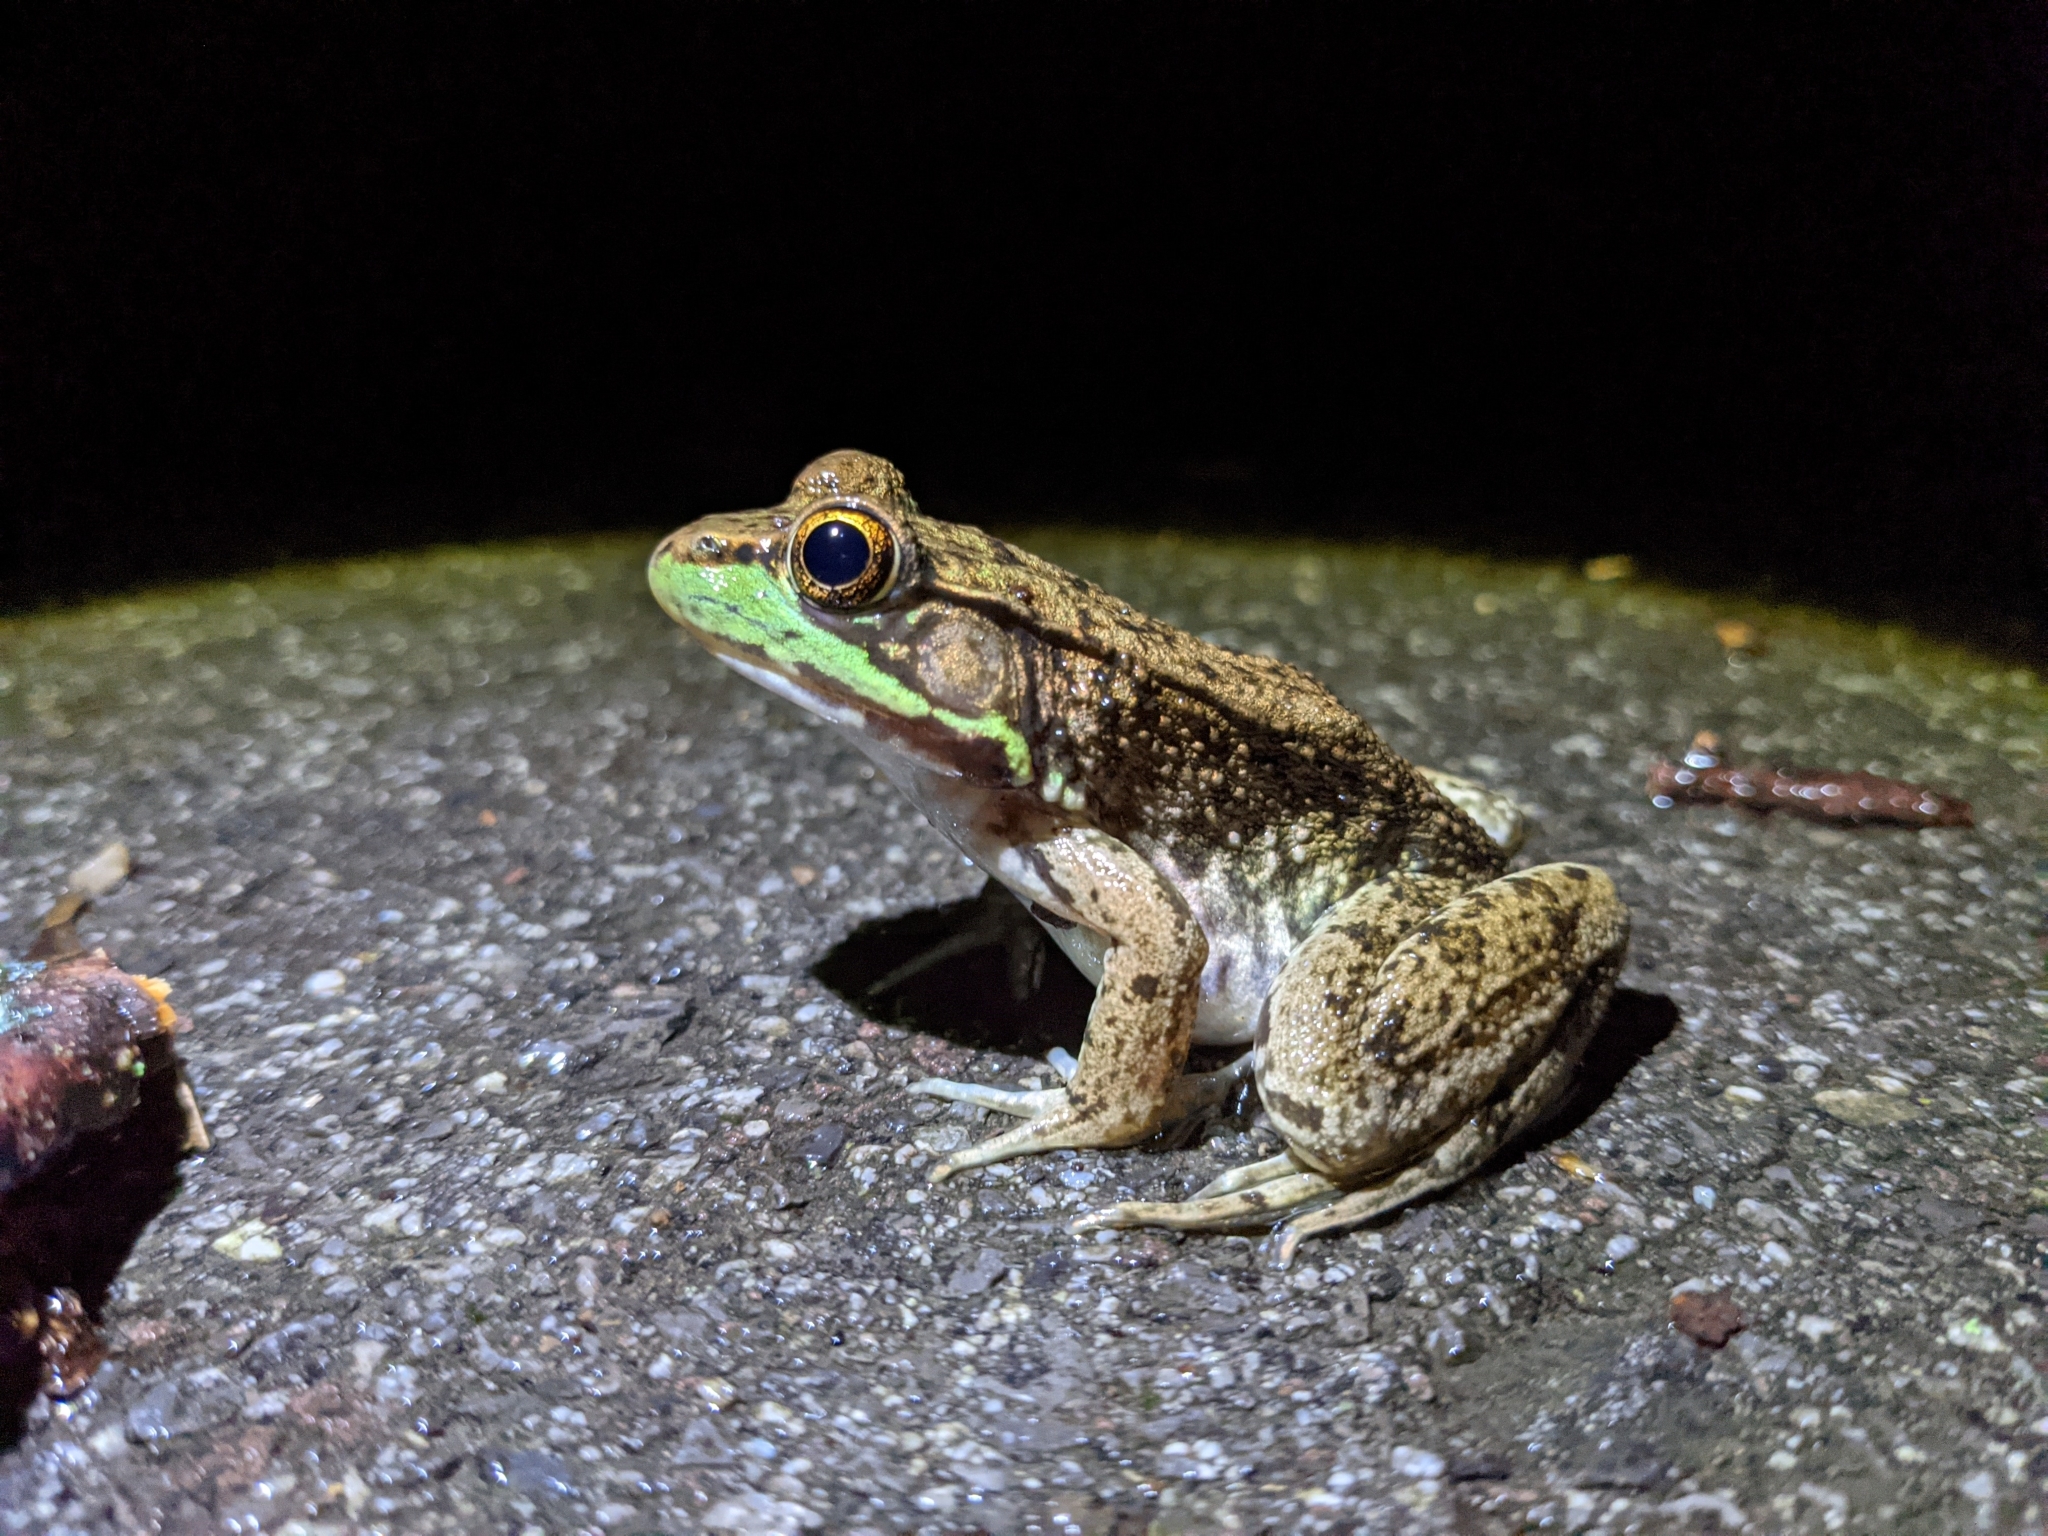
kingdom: Animalia
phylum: Chordata
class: Amphibia
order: Anura
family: Ranidae
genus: Lithobates
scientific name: Lithobates clamitans
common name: Green frog
